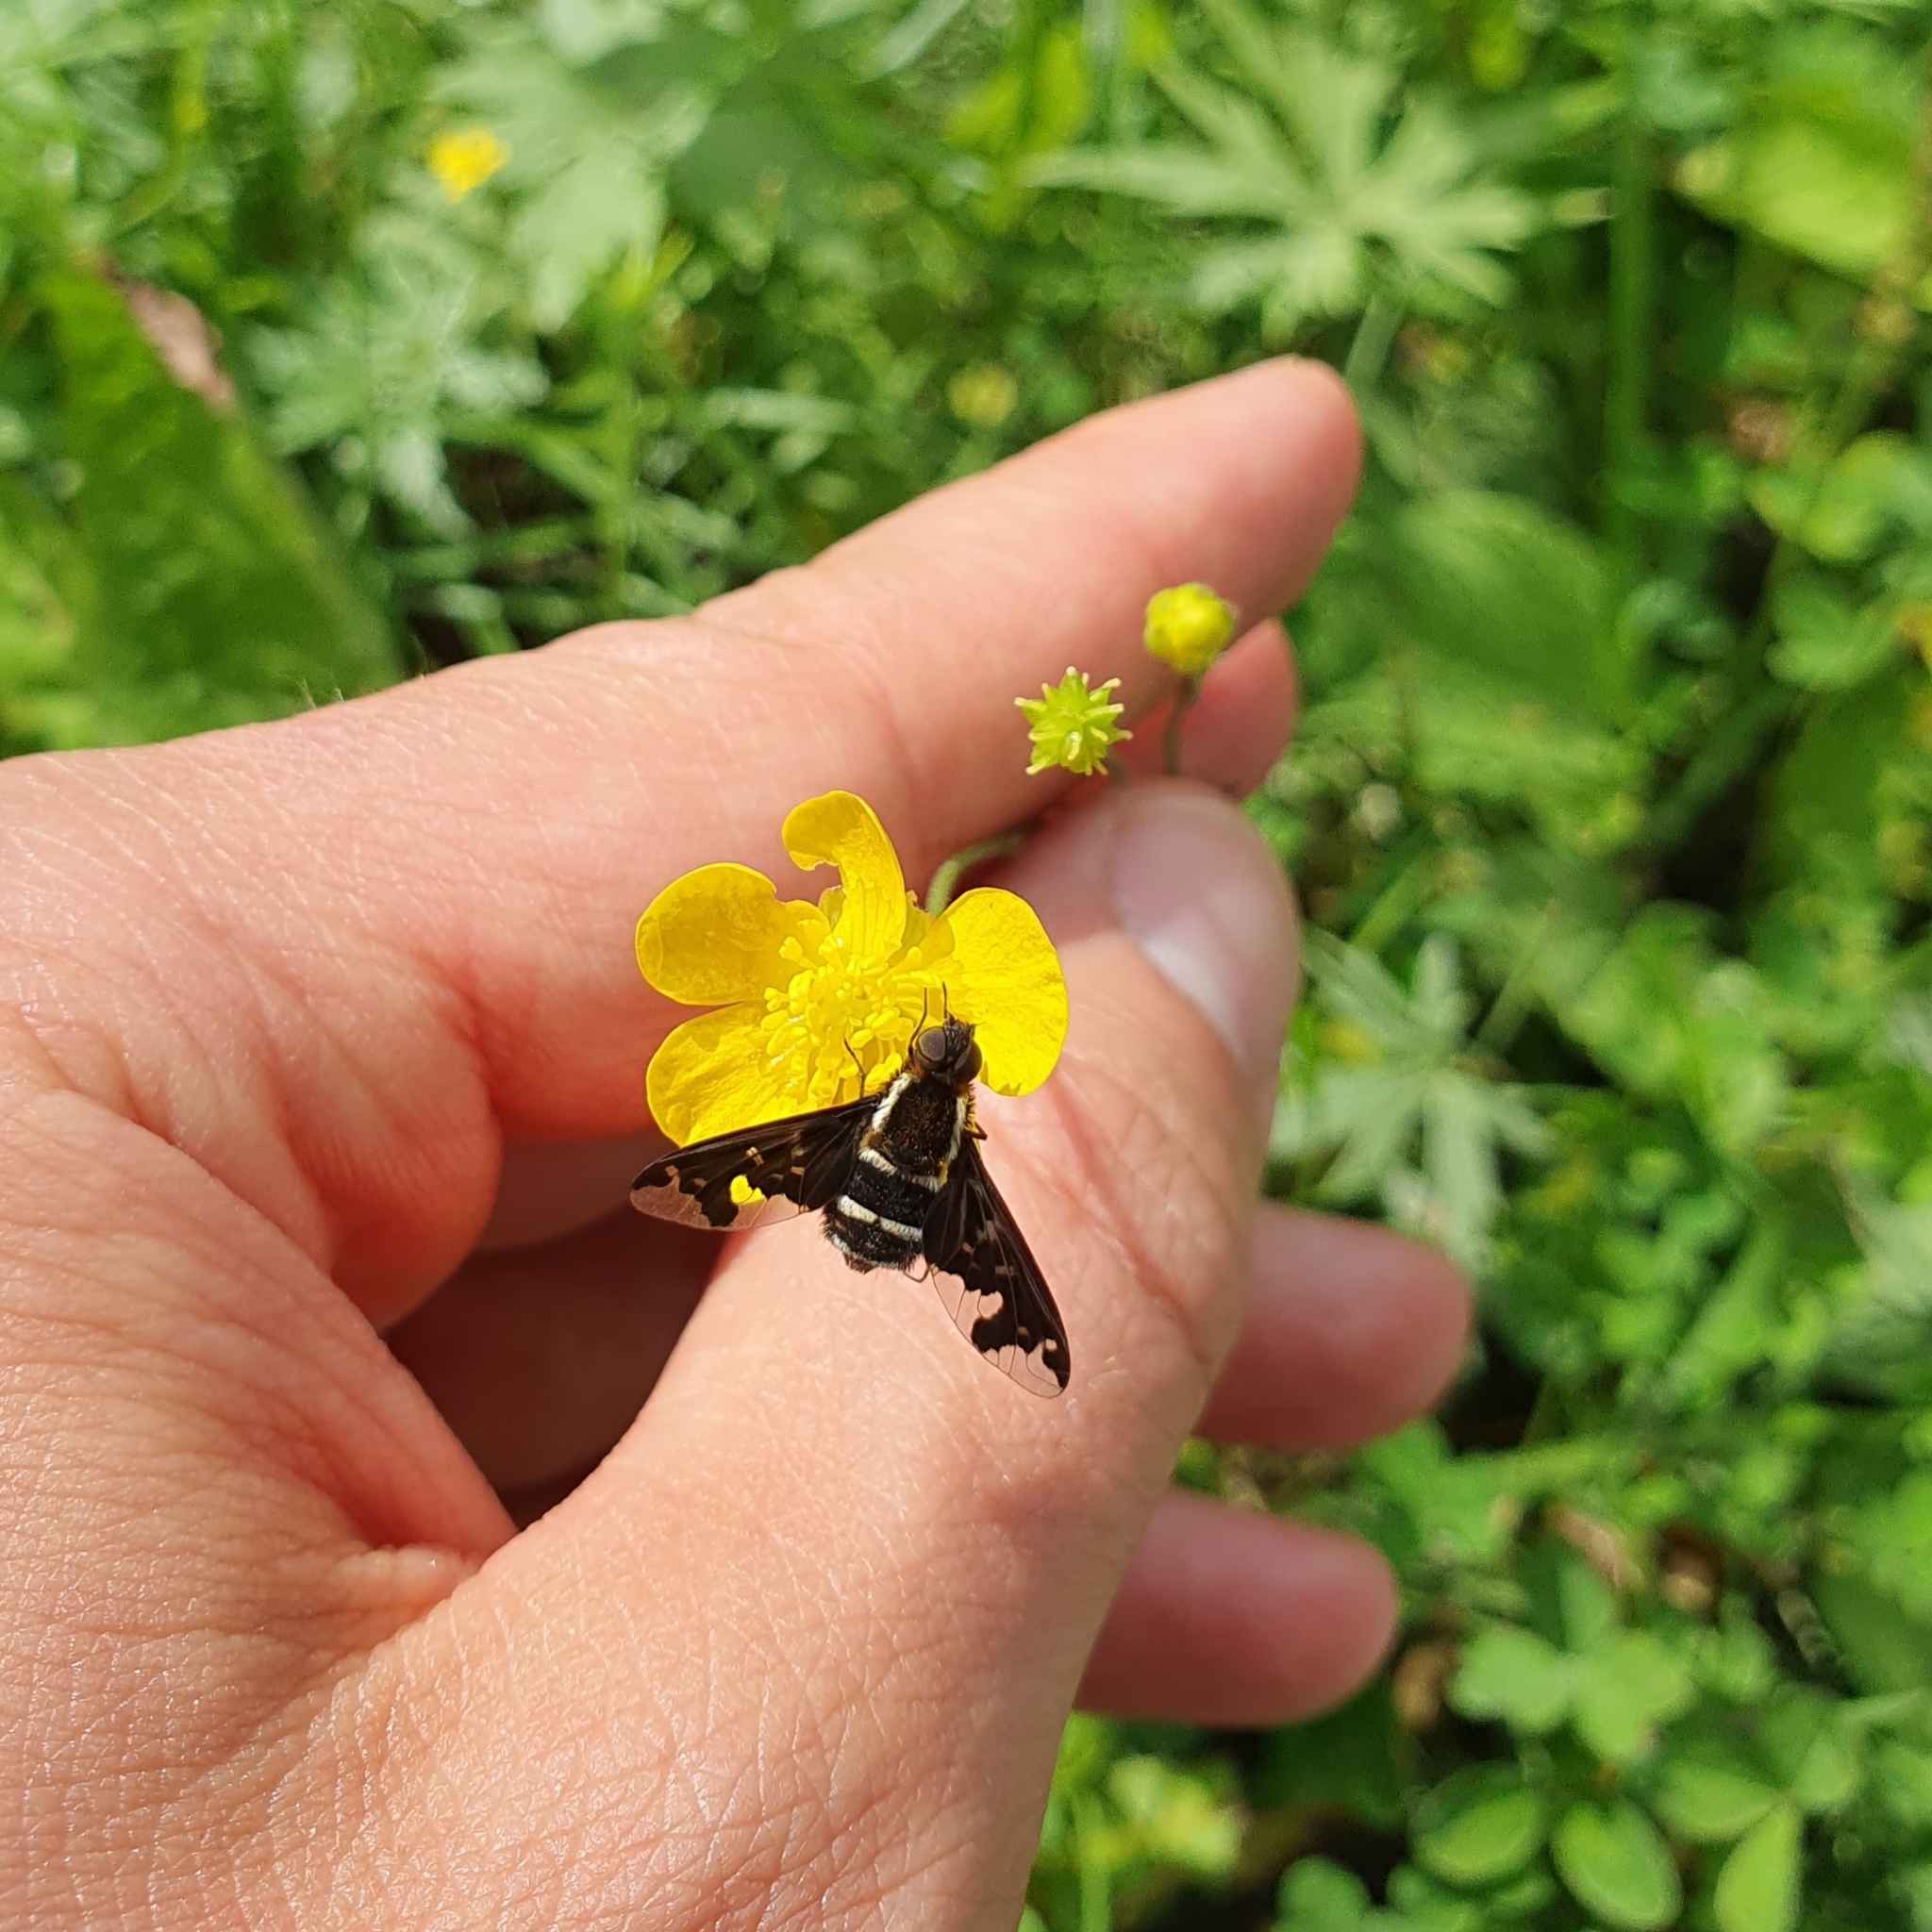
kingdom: Animalia
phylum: Arthropoda
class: Insecta
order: Diptera
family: Bombyliidae
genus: Hemipenthes
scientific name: Hemipenthes maura
